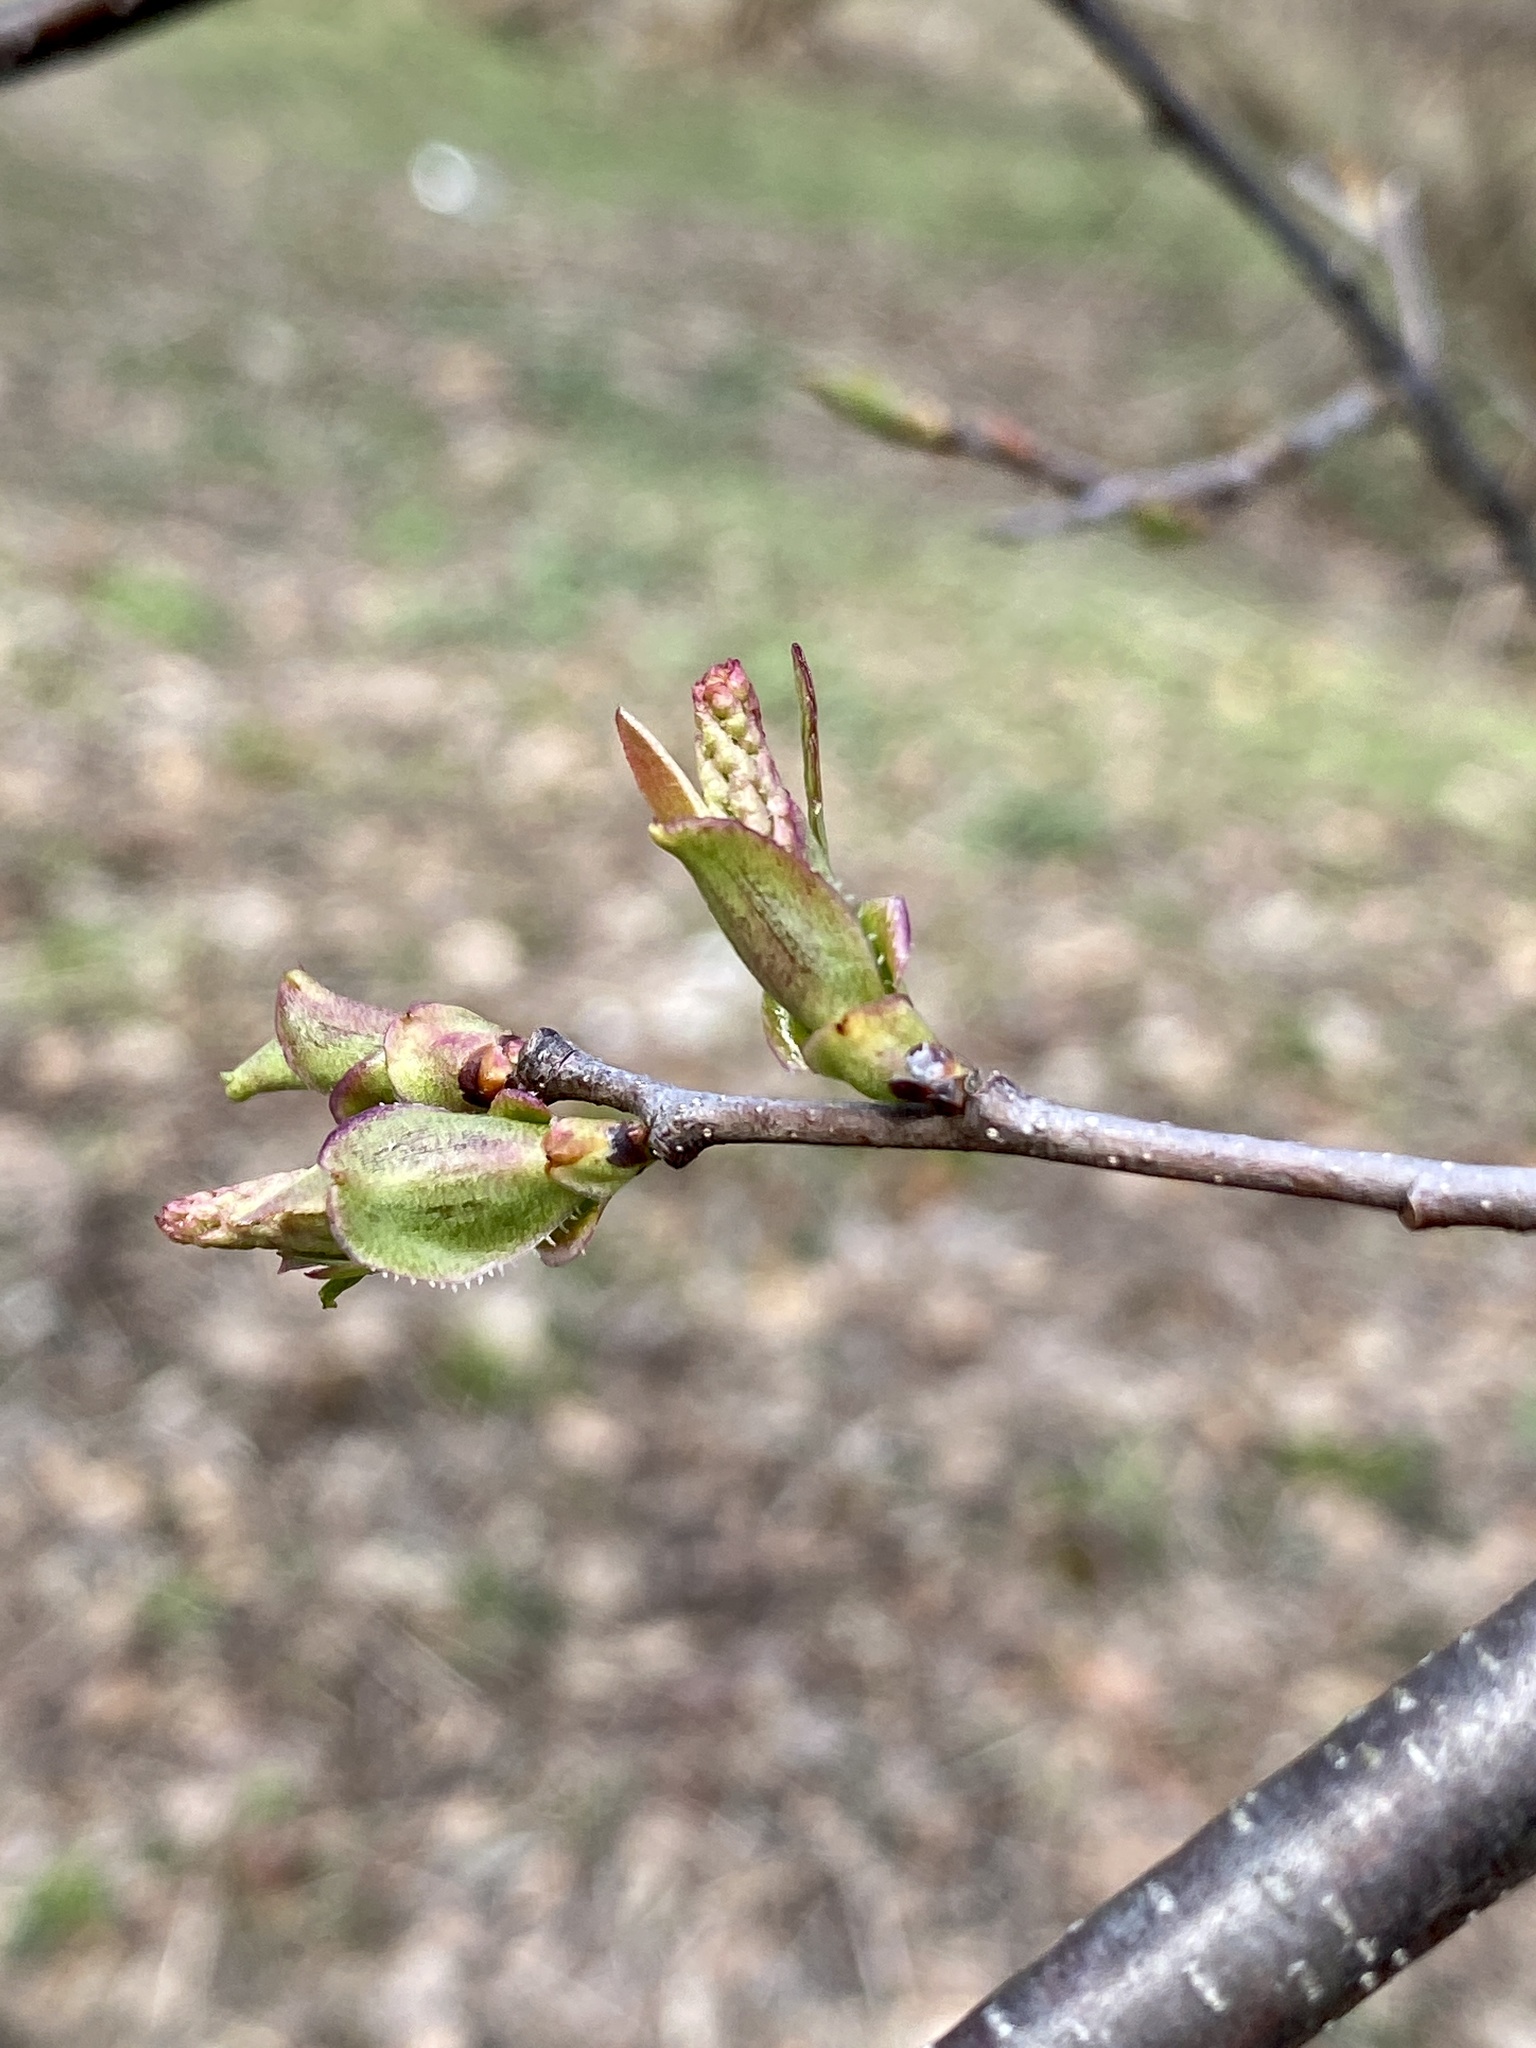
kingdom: Plantae
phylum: Tracheophyta
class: Magnoliopsida
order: Rosales
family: Rosaceae
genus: Prunus
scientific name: Prunus serotina
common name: Black cherry
